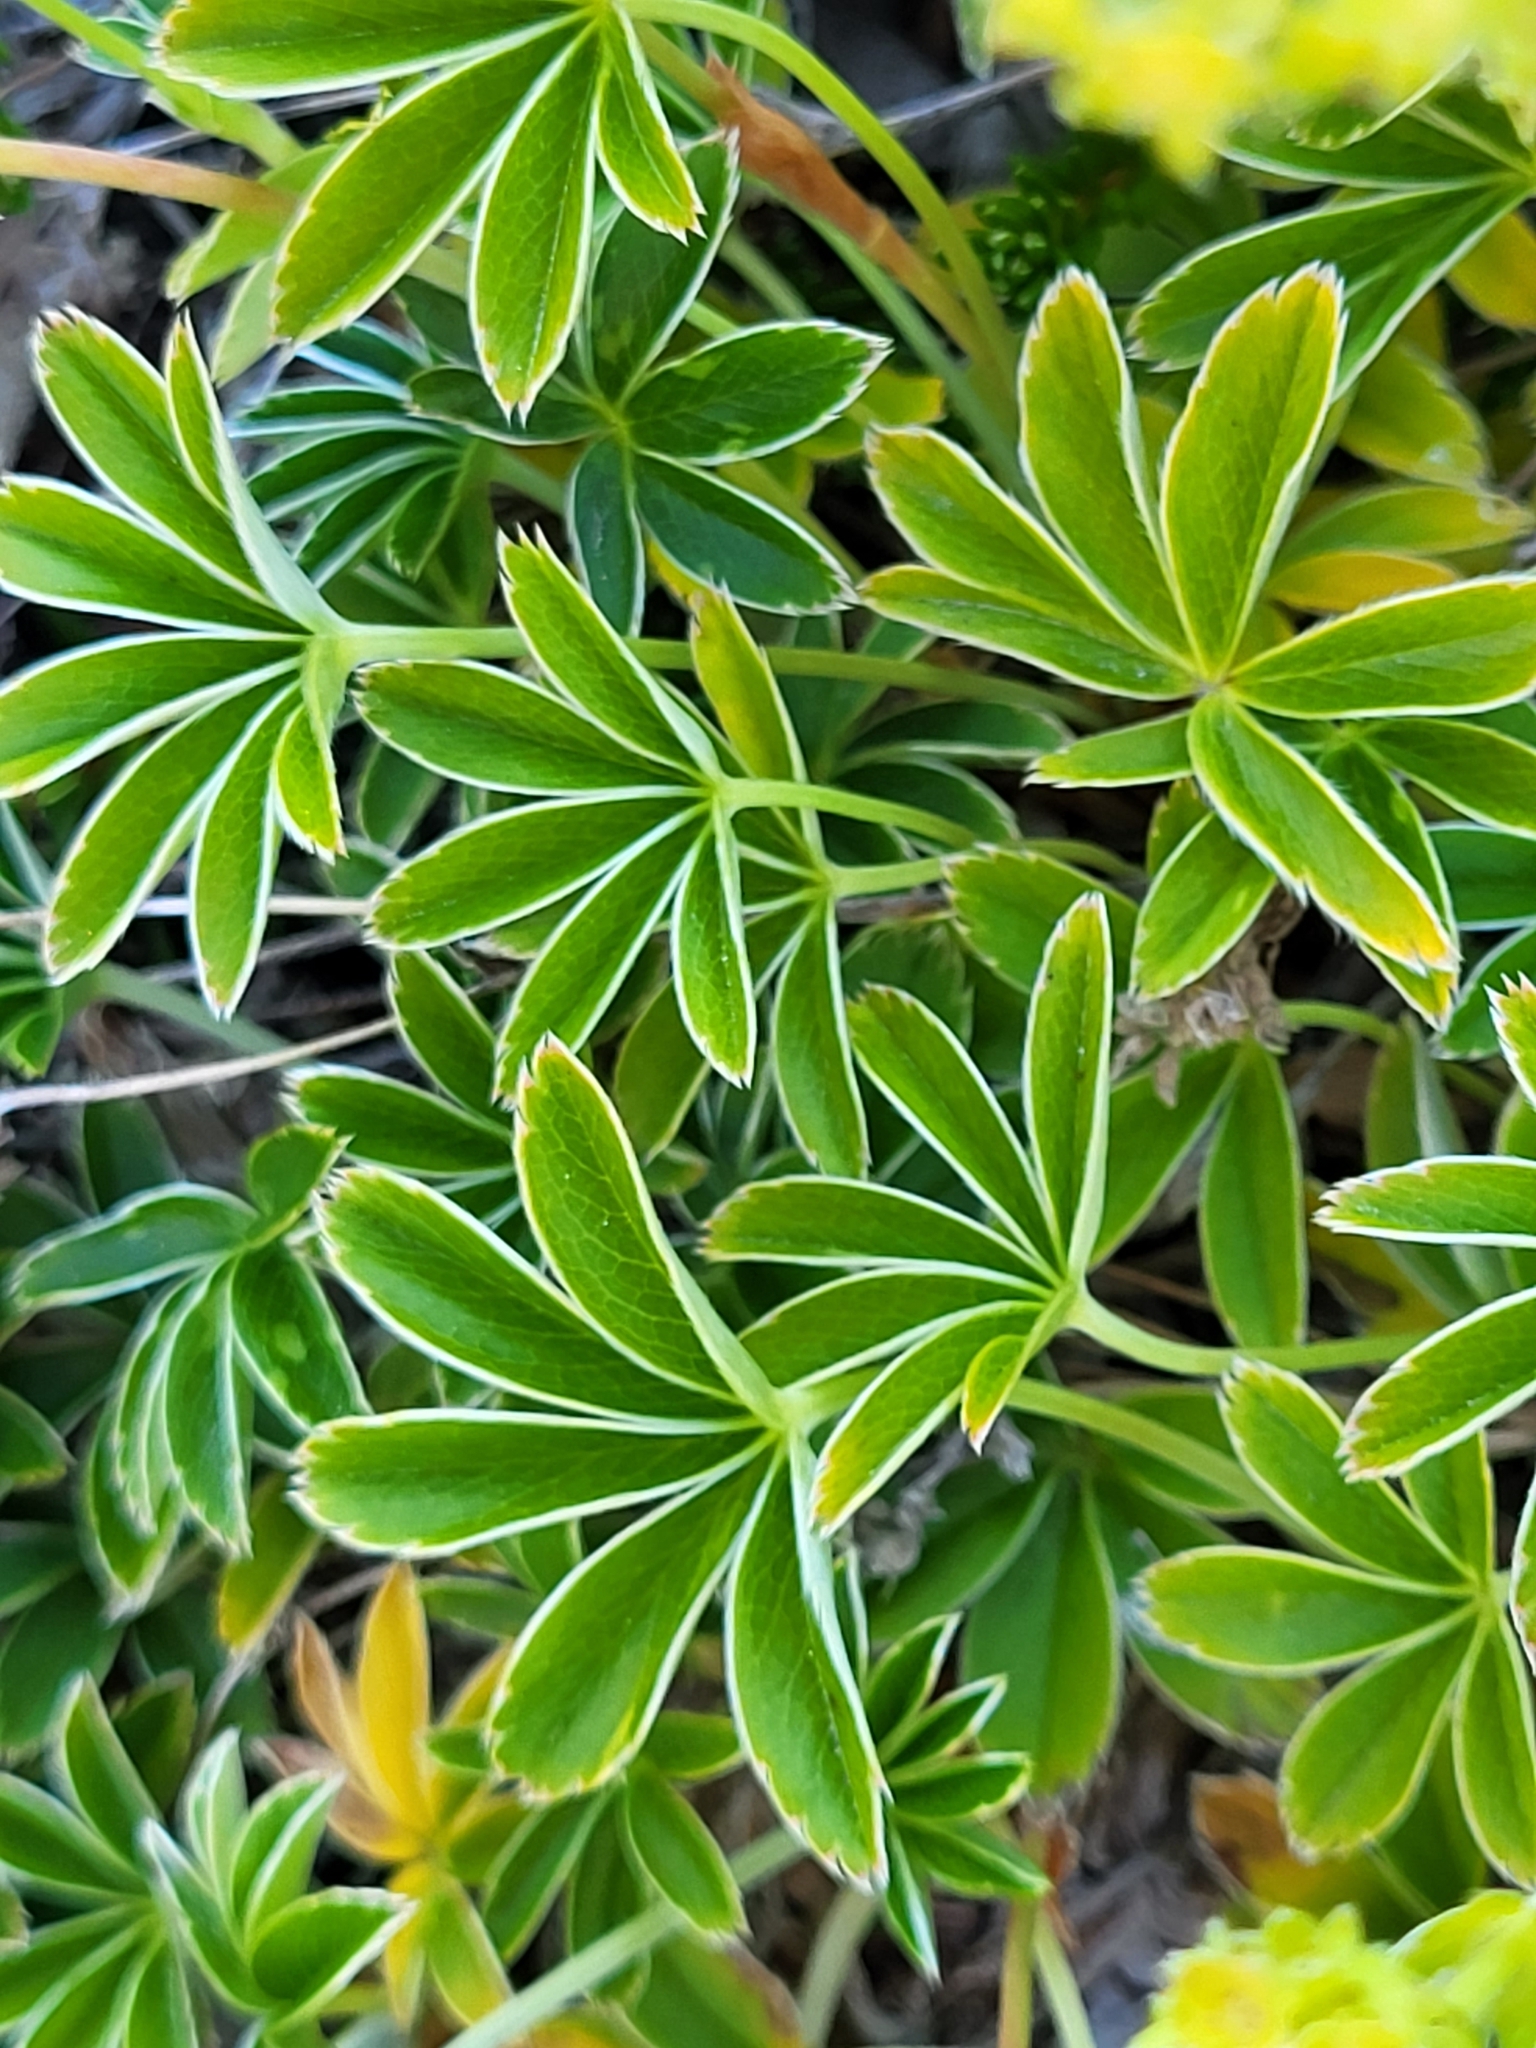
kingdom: Plantae
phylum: Tracheophyta
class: Magnoliopsida
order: Rosales
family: Rosaceae
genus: Alchemilla
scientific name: Alchemilla alpina
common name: Alpine lady's-mantle
